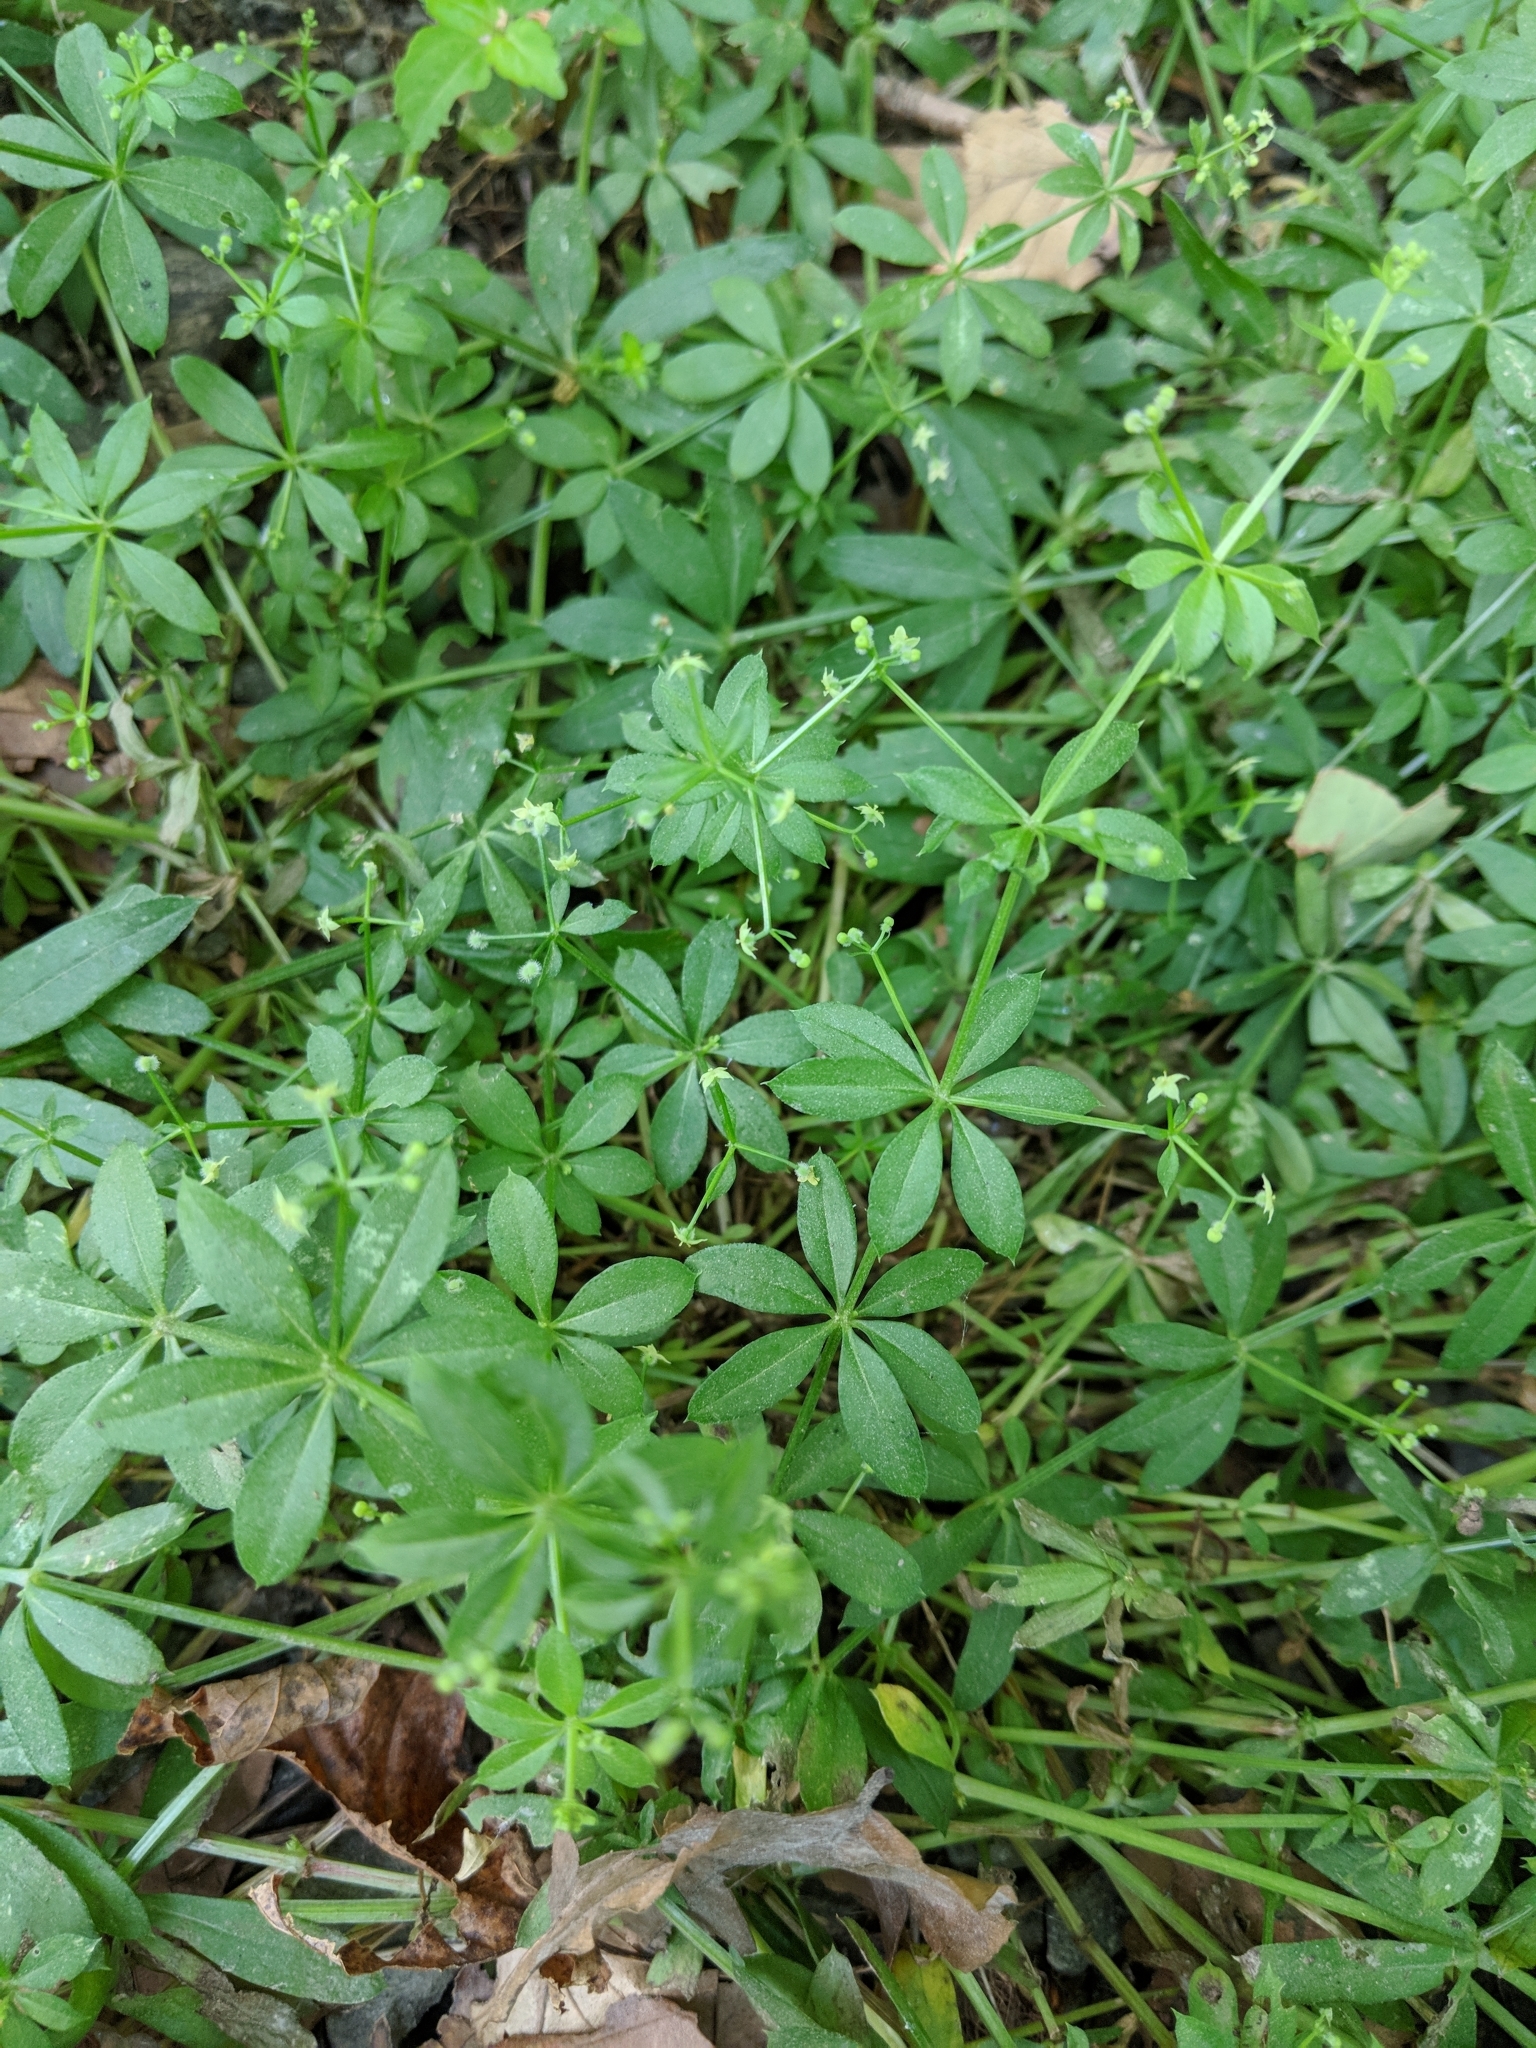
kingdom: Plantae
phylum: Tracheophyta
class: Magnoliopsida
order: Gentianales
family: Rubiaceae
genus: Galium
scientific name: Galium triflorum
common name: Fragrant bedstraw
